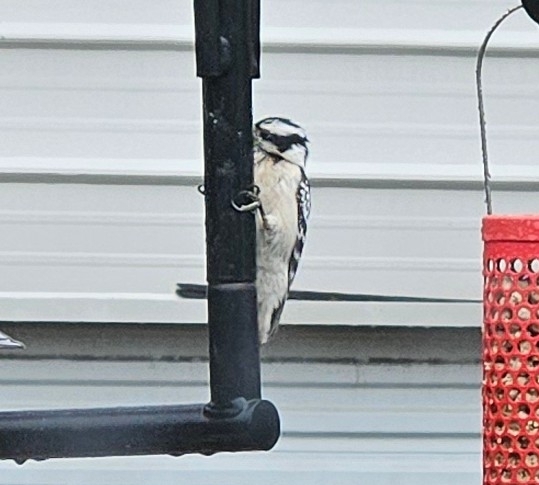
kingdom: Animalia
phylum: Chordata
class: Aves
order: Piciformes
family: Picidae
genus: Dryobates
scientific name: Dryobates pubescens
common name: Downy woodpecker
